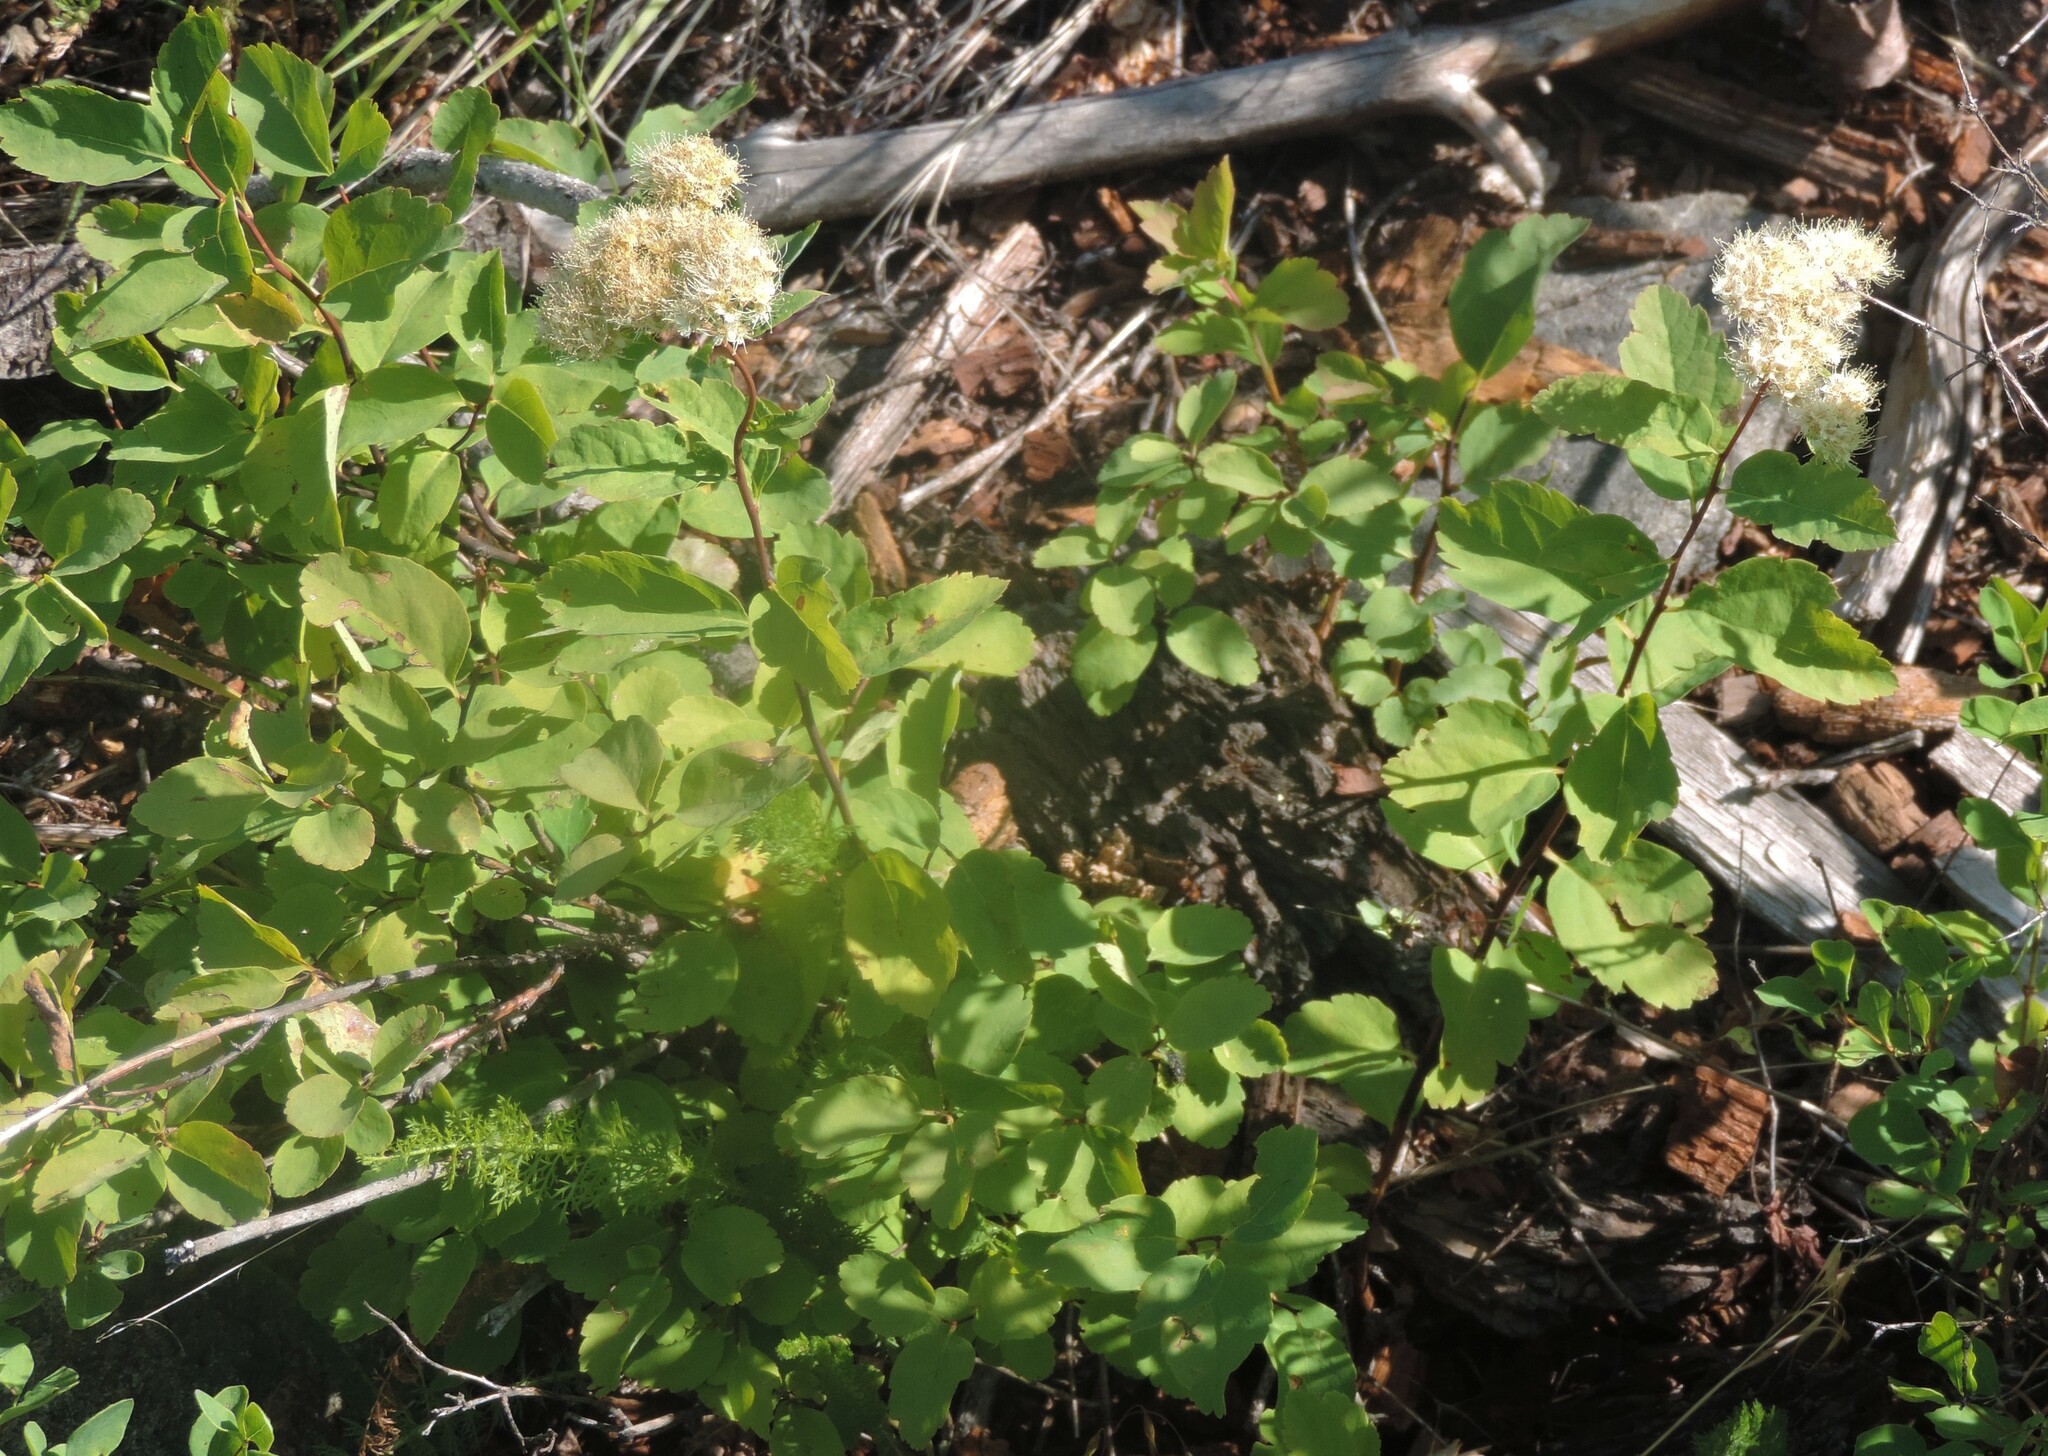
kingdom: Plantae
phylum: Tracheophyta
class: Magnoliopsida
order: Rosales
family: Rosaceae
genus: Spiraea
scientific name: Spiraea lucida
